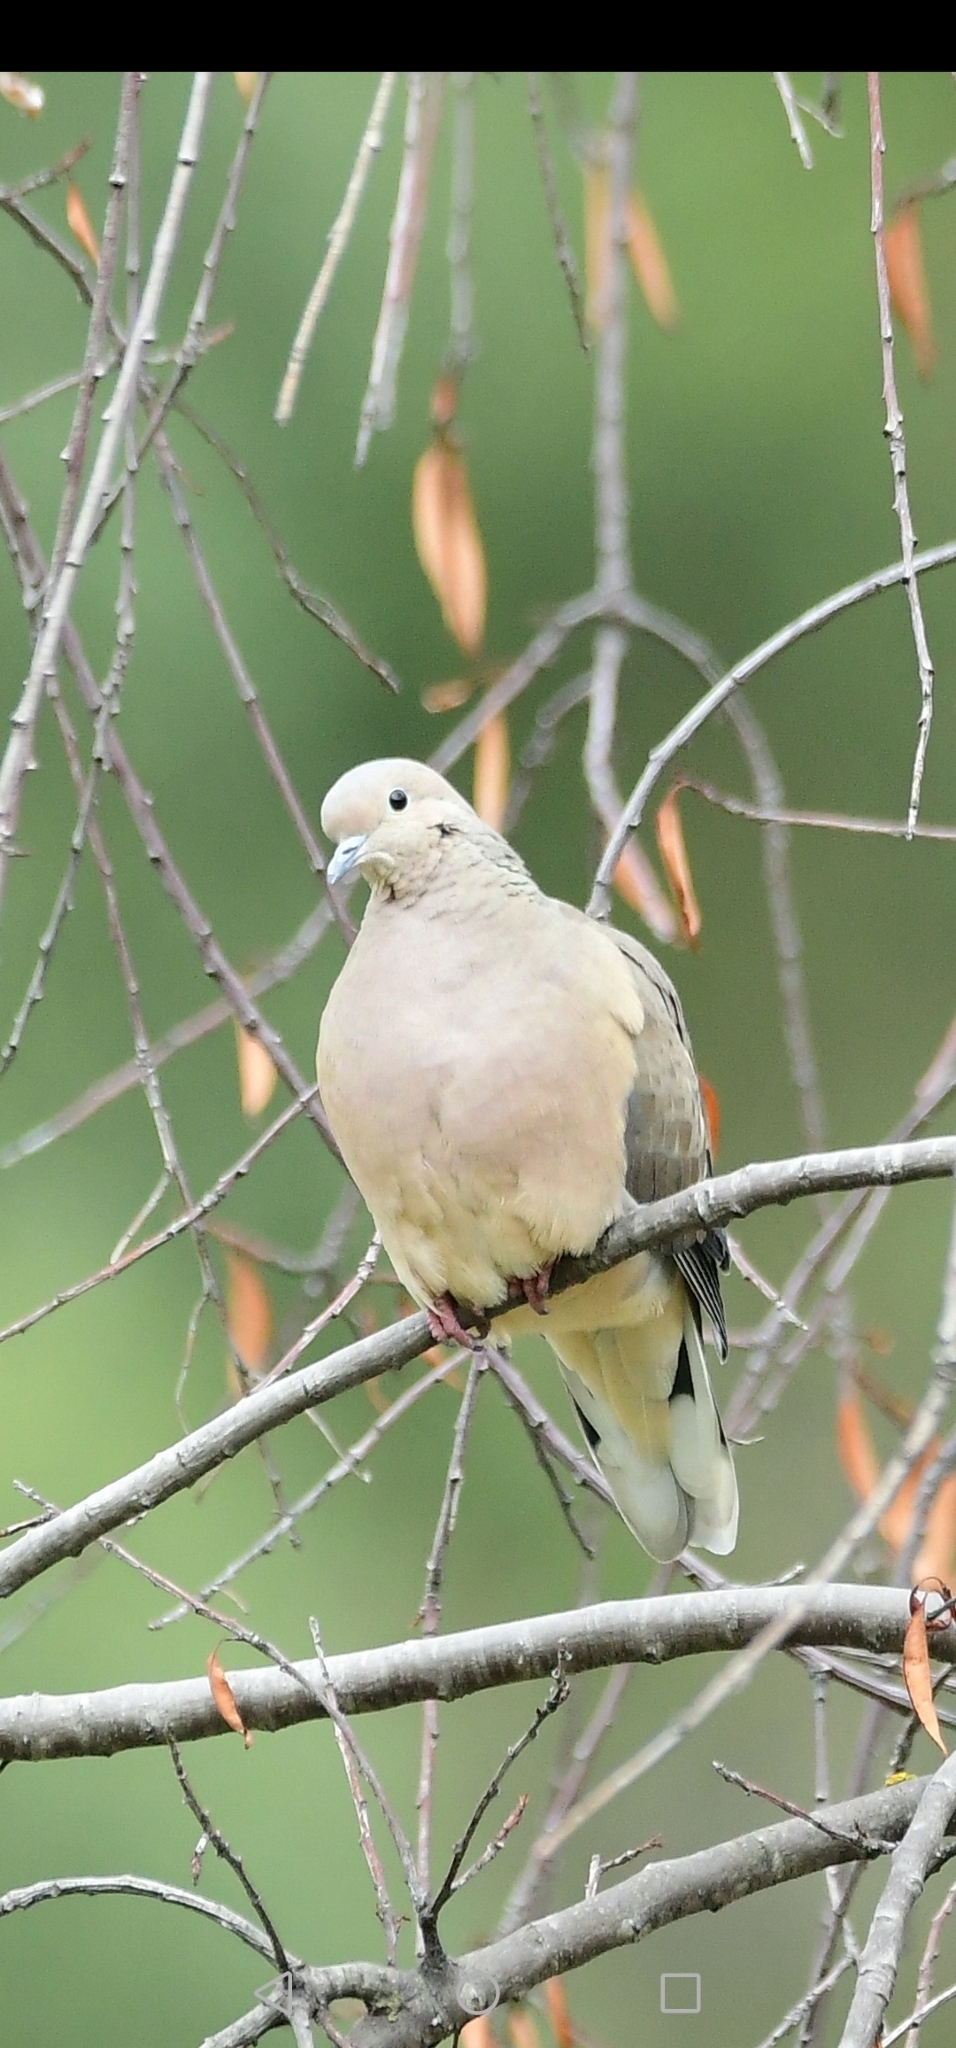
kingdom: Animalia
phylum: Chordata
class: Aves
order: Columbiformes
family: Columbidae
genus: Zenaida
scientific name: Zenaida auriculata
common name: Eared dove
